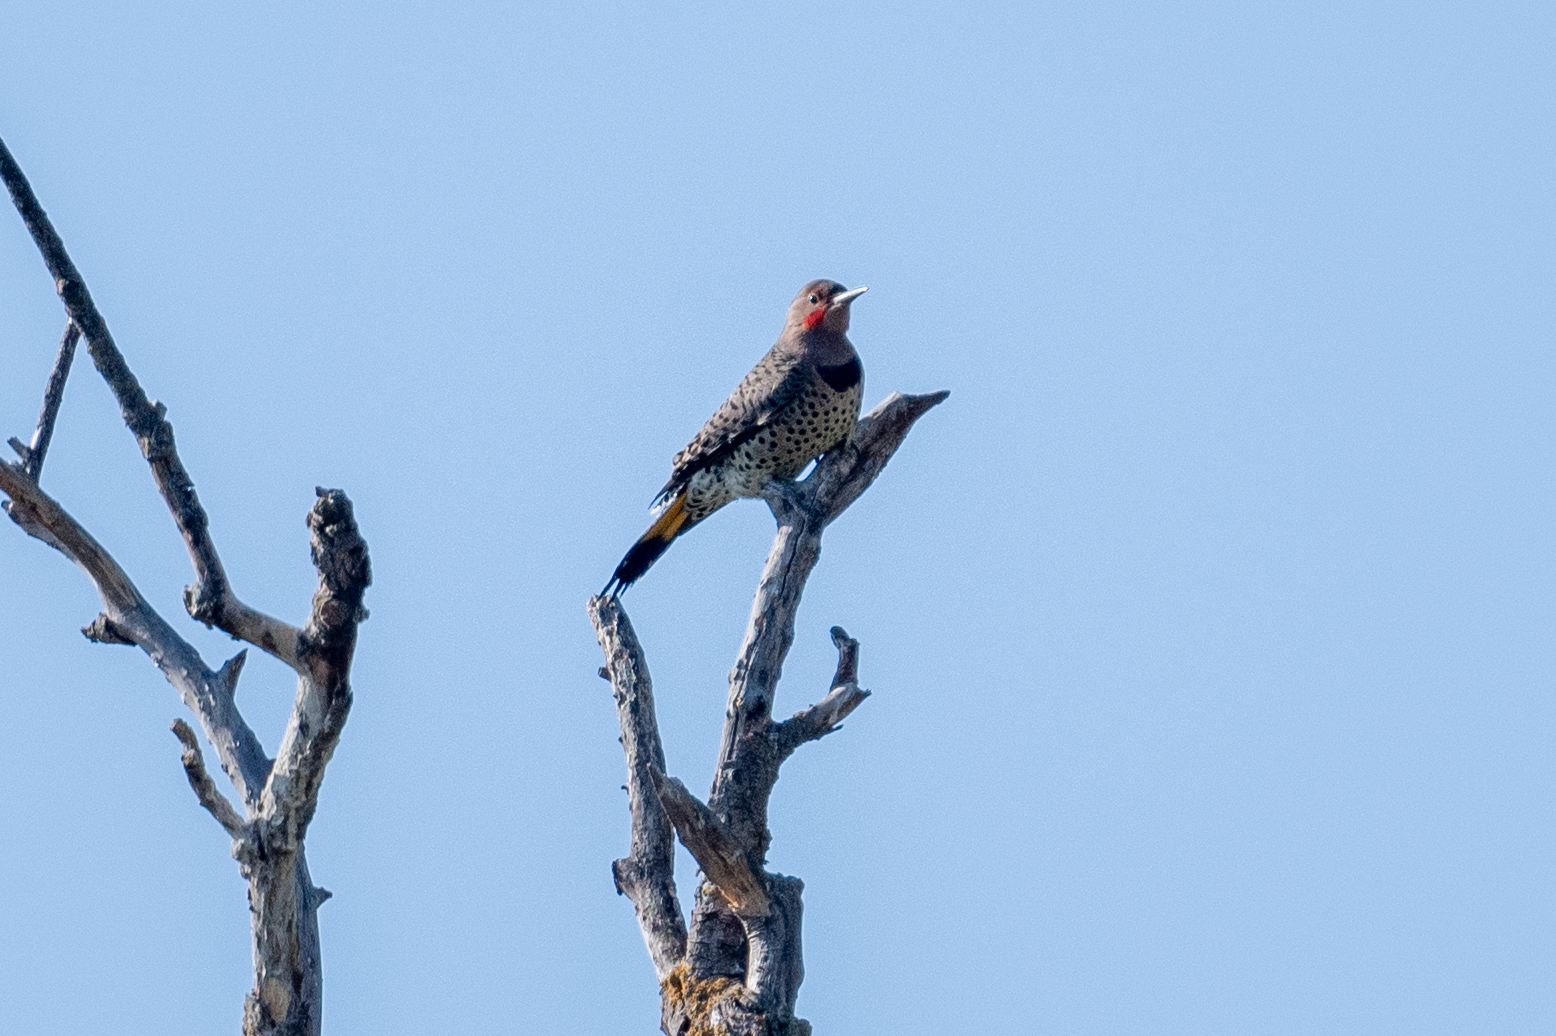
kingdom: Animalia
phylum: Chordata
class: Aves
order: Piciformes
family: Picidae
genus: Colaptes
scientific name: Colaptes auratus
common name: Northern flicker
